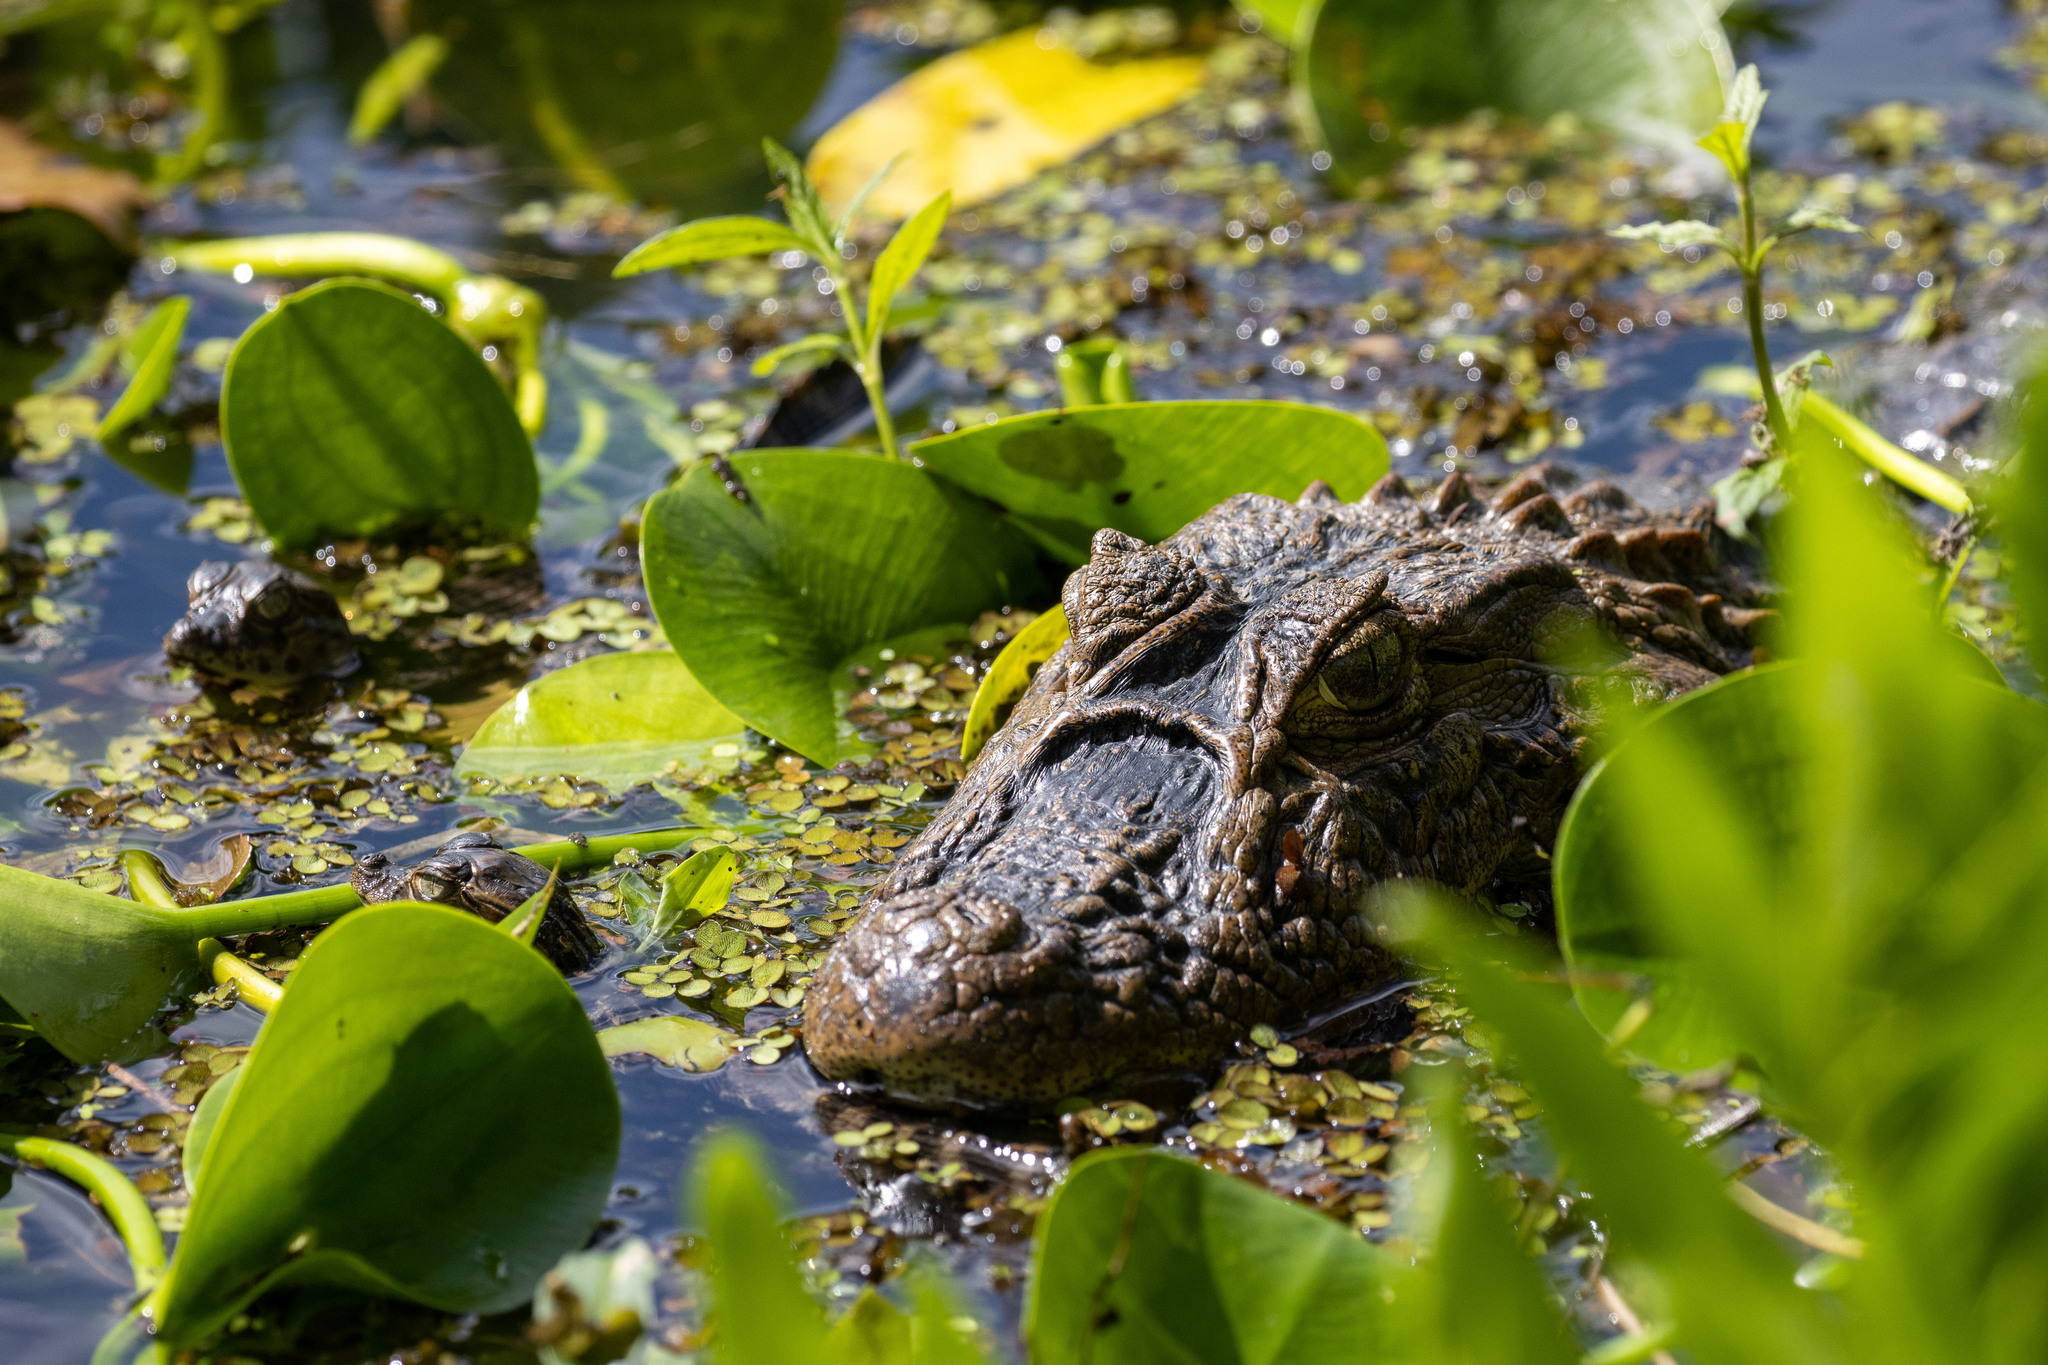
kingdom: Animalia
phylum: Chordata
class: Crocodylia
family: Alligatoridae
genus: Caiman
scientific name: Caiman latirostris
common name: Broad-snouted caiman
